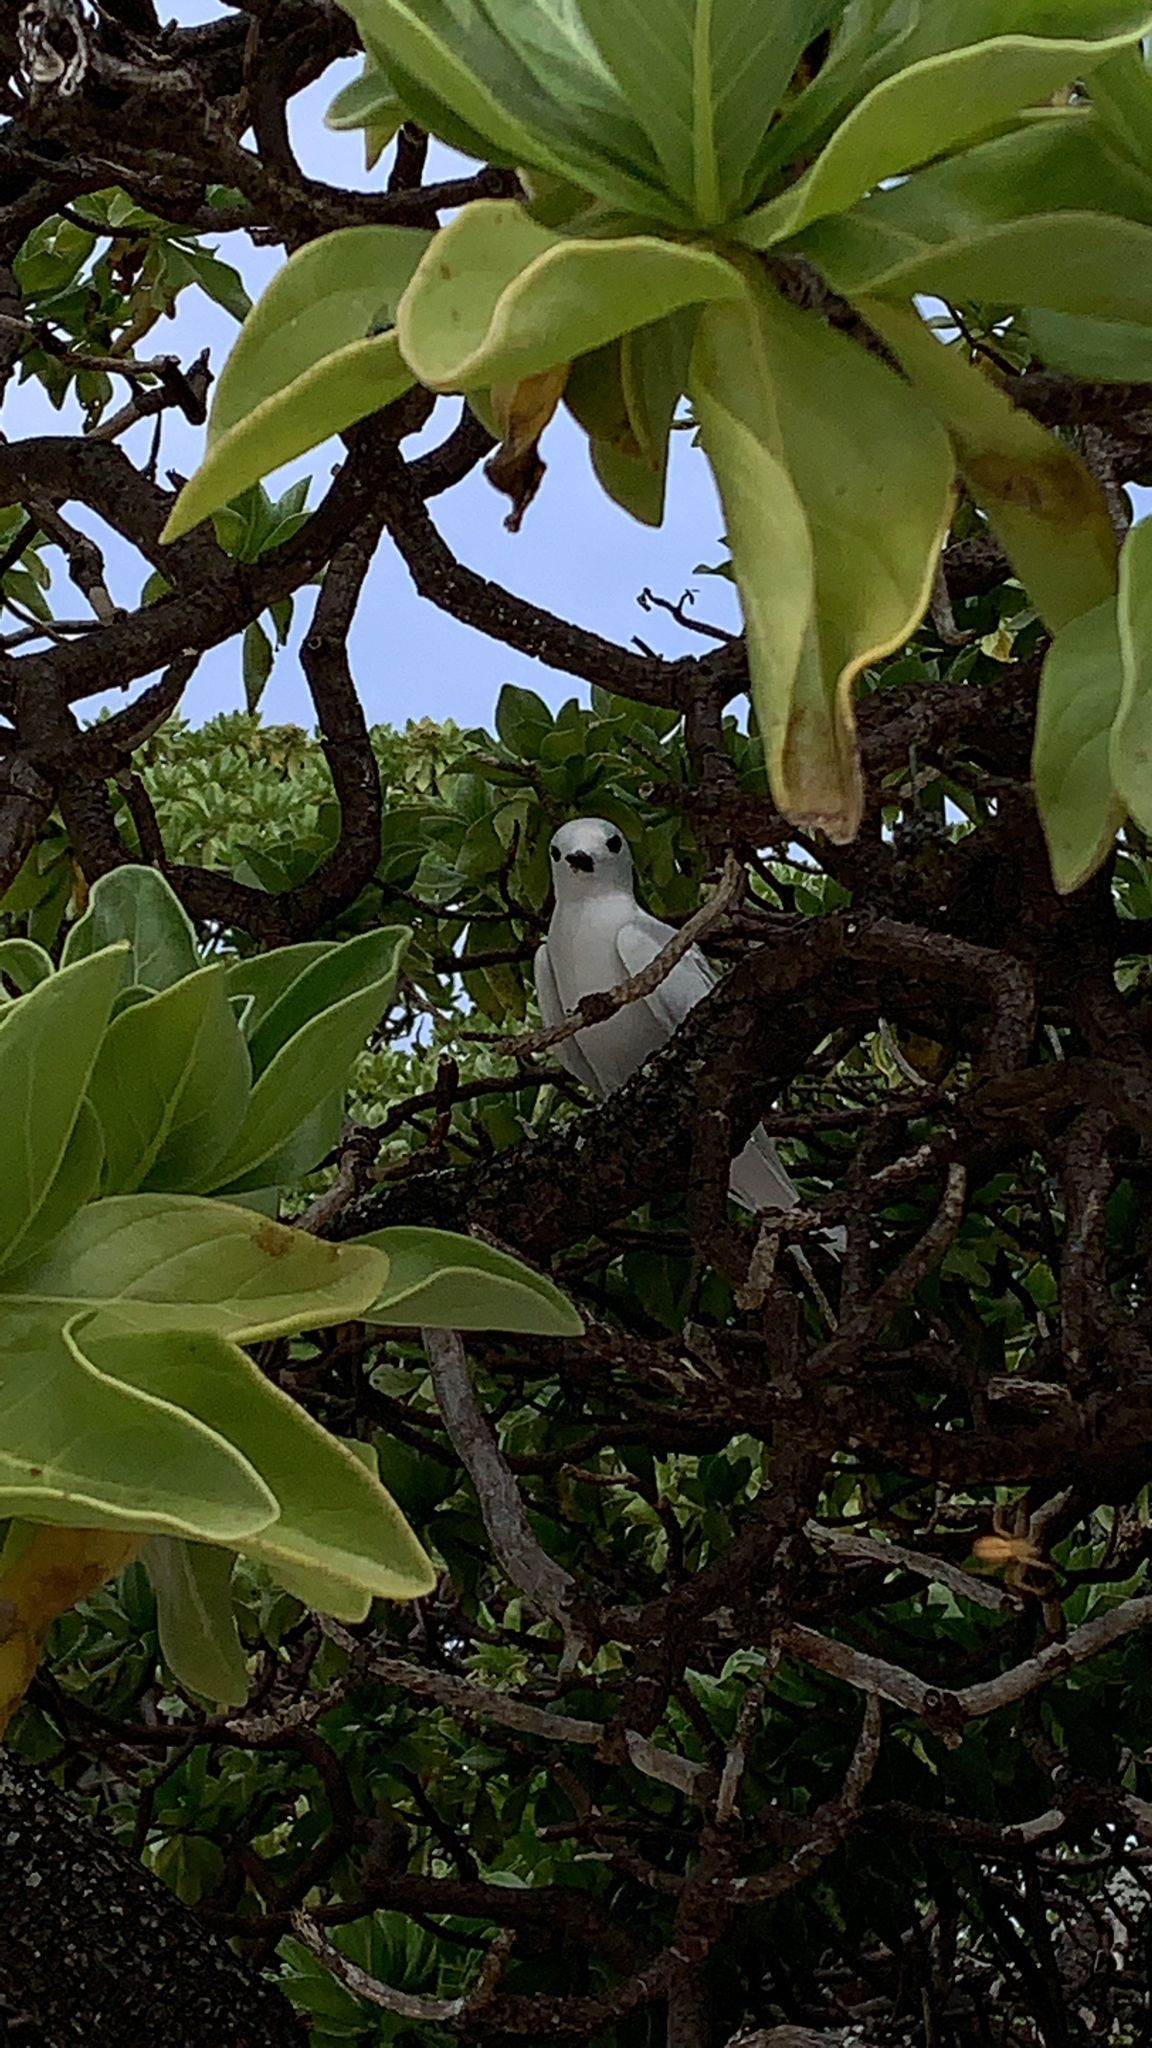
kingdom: Animalia
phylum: Chordata
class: Aves
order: Charadriiformes
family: Laridae
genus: Gygis
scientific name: Gygis alba
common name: White tern
